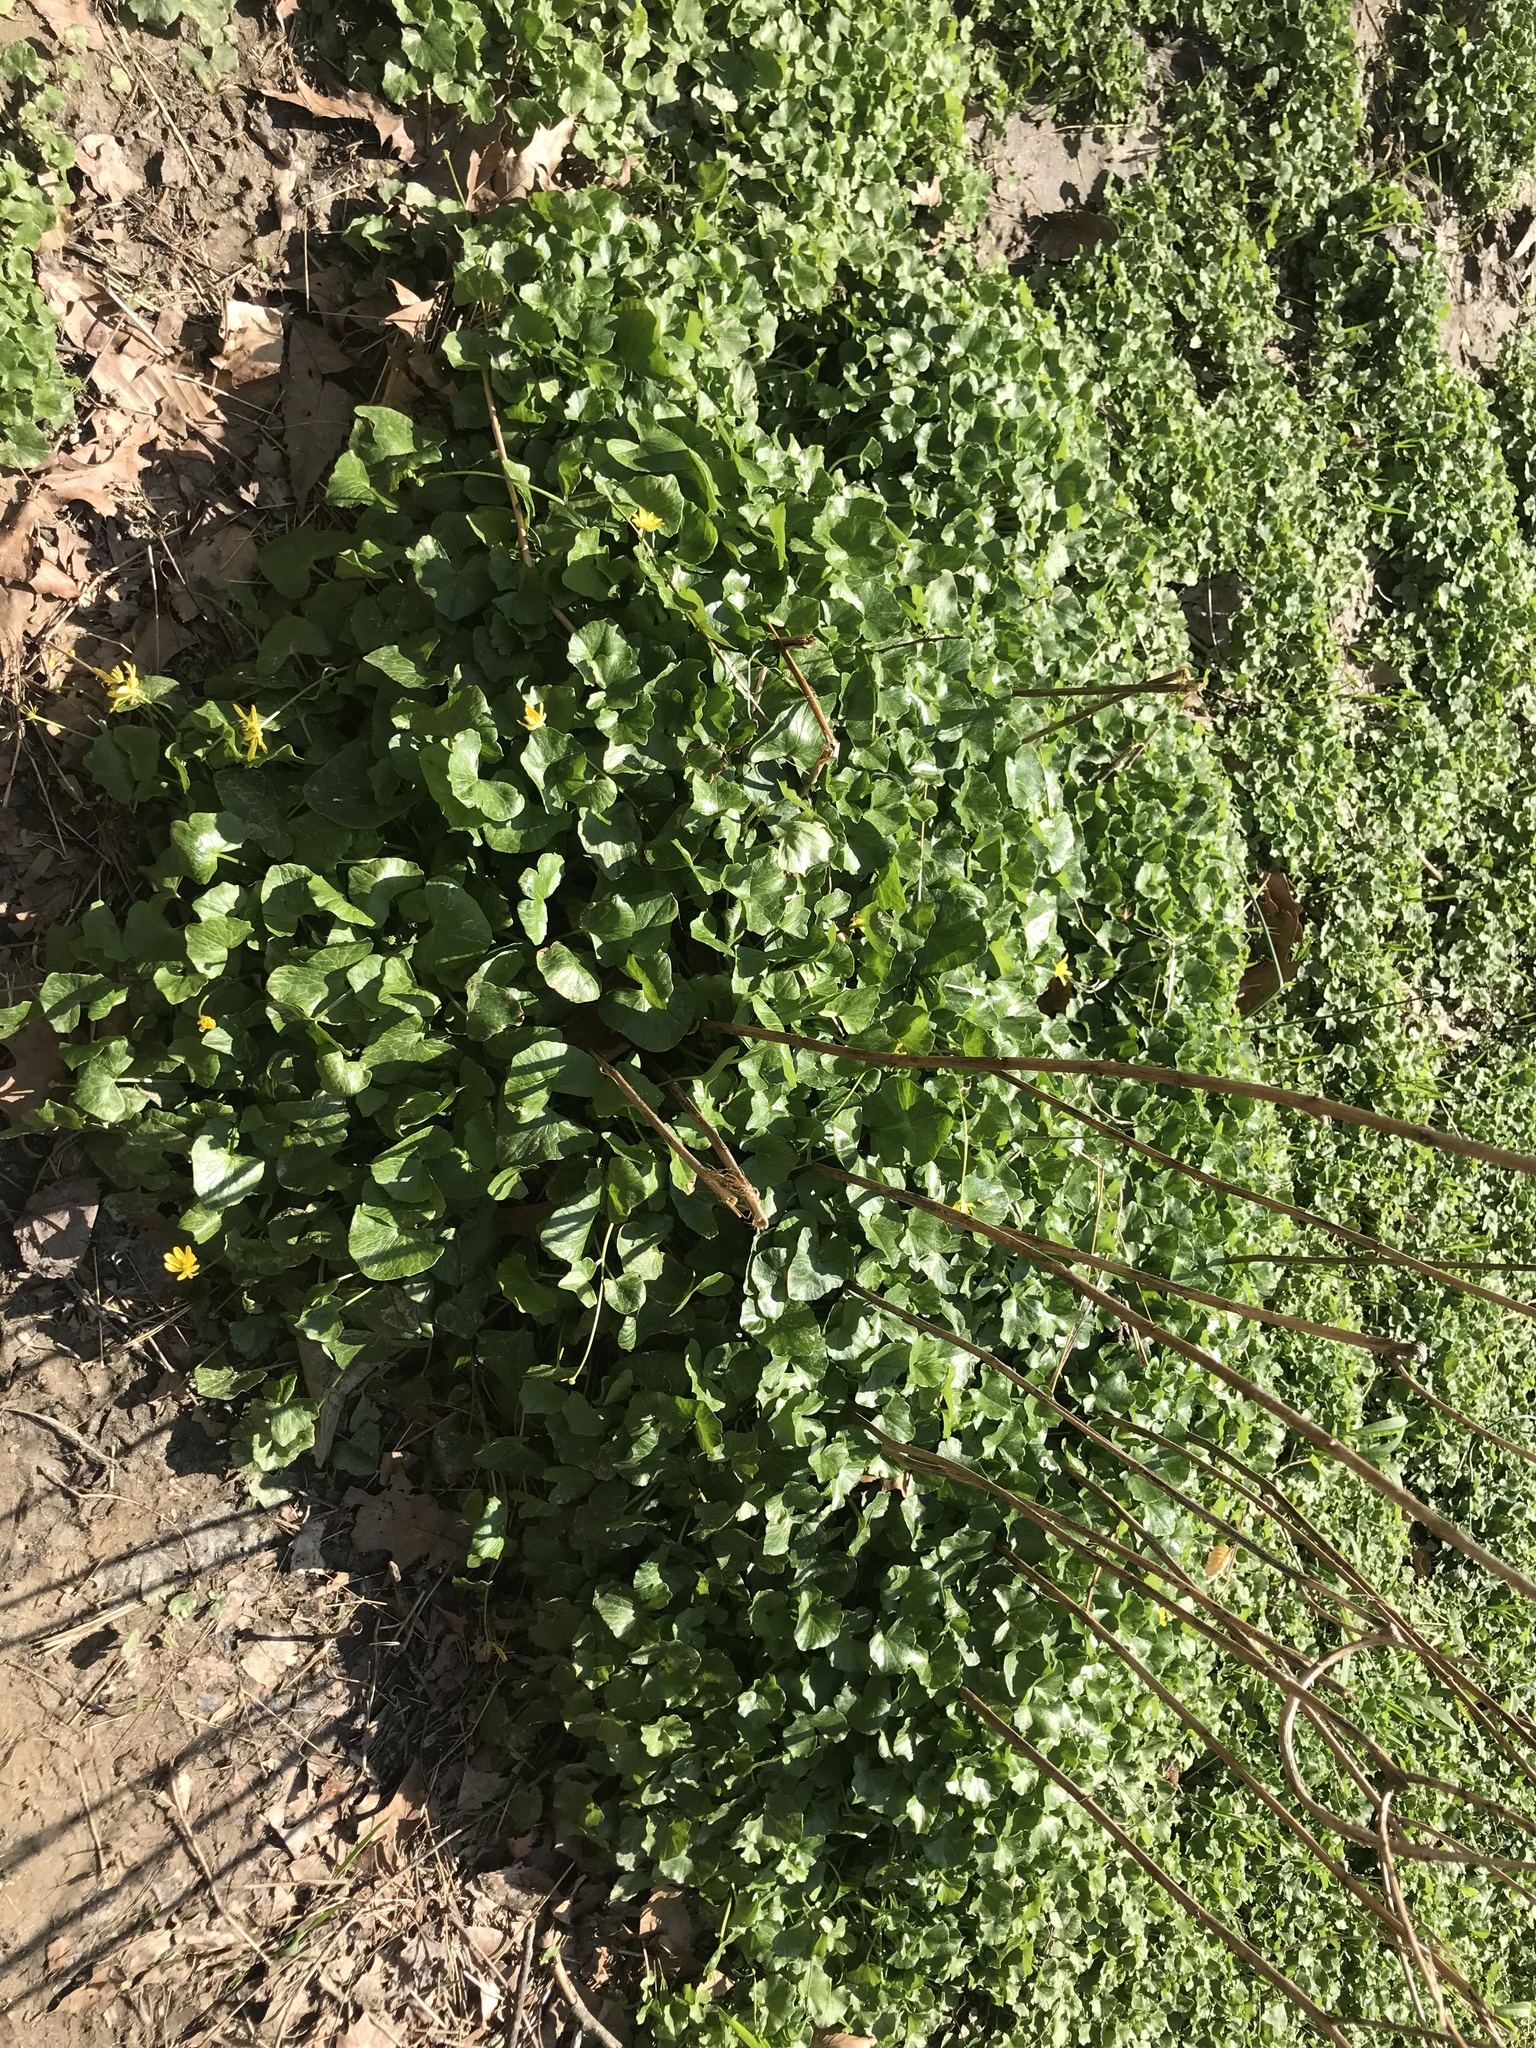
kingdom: Plantae
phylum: Tracheophyta
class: Magnoliopsida
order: Ranunculales
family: Ranunculaceae
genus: Ficaria
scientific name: Ficaria verna
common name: Lesser celandine
